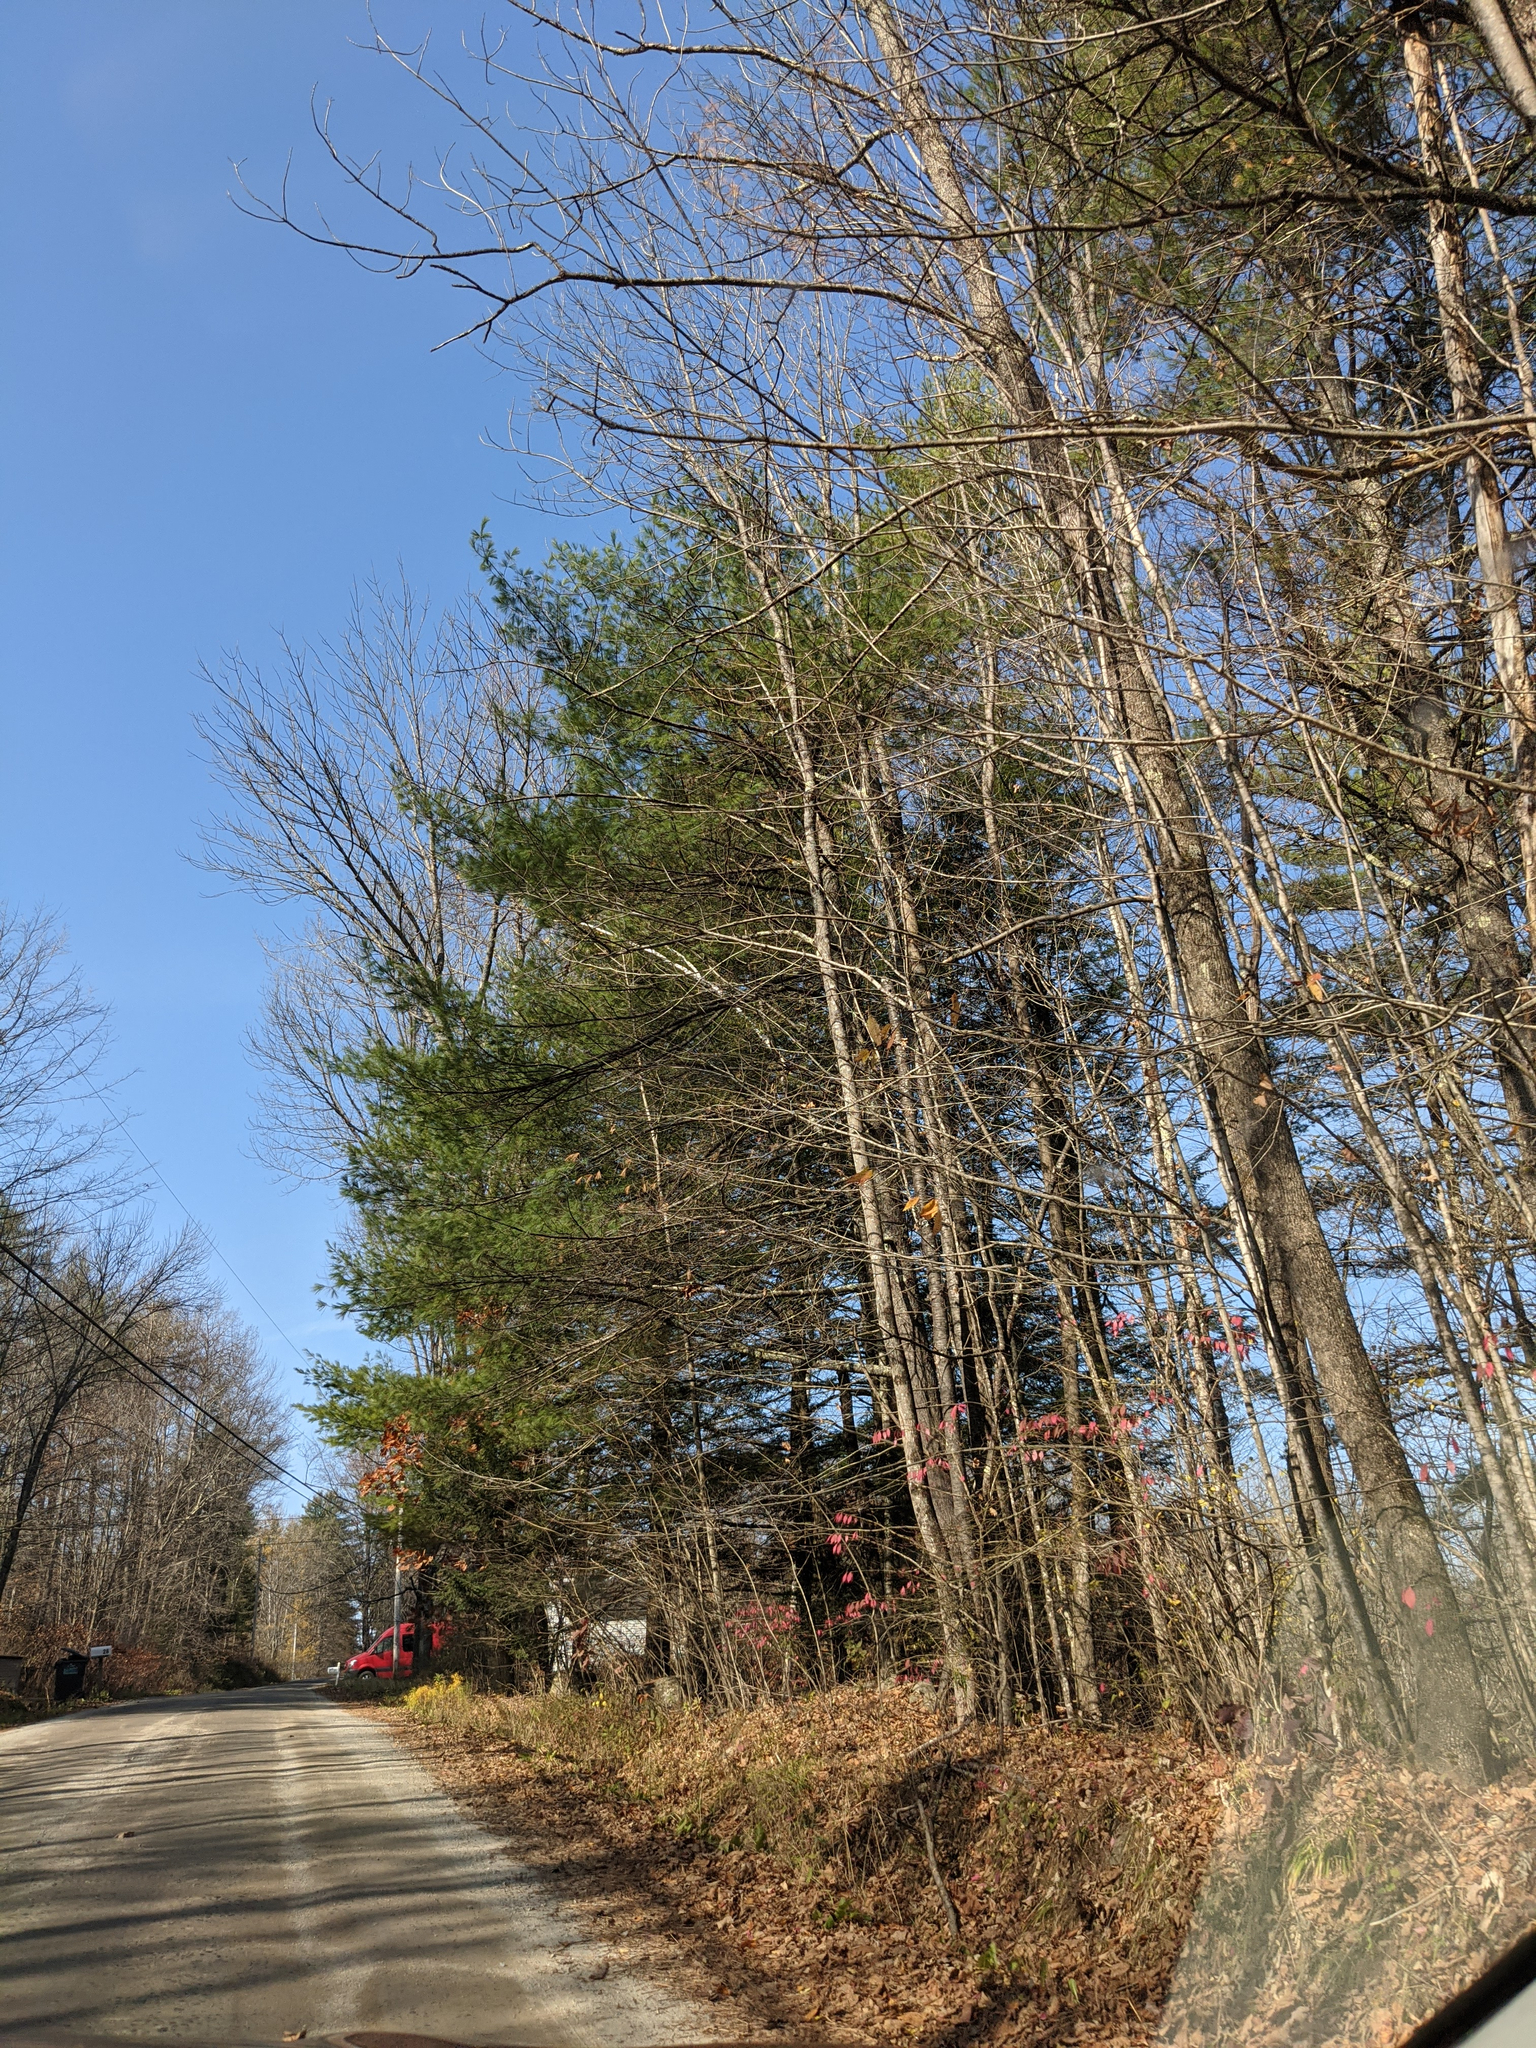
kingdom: Plantae
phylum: Tracheophyta
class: Pinopsida
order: Pinales
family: Pinaceae
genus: Pinus
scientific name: Pinus strobus
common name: Weymouth pine
